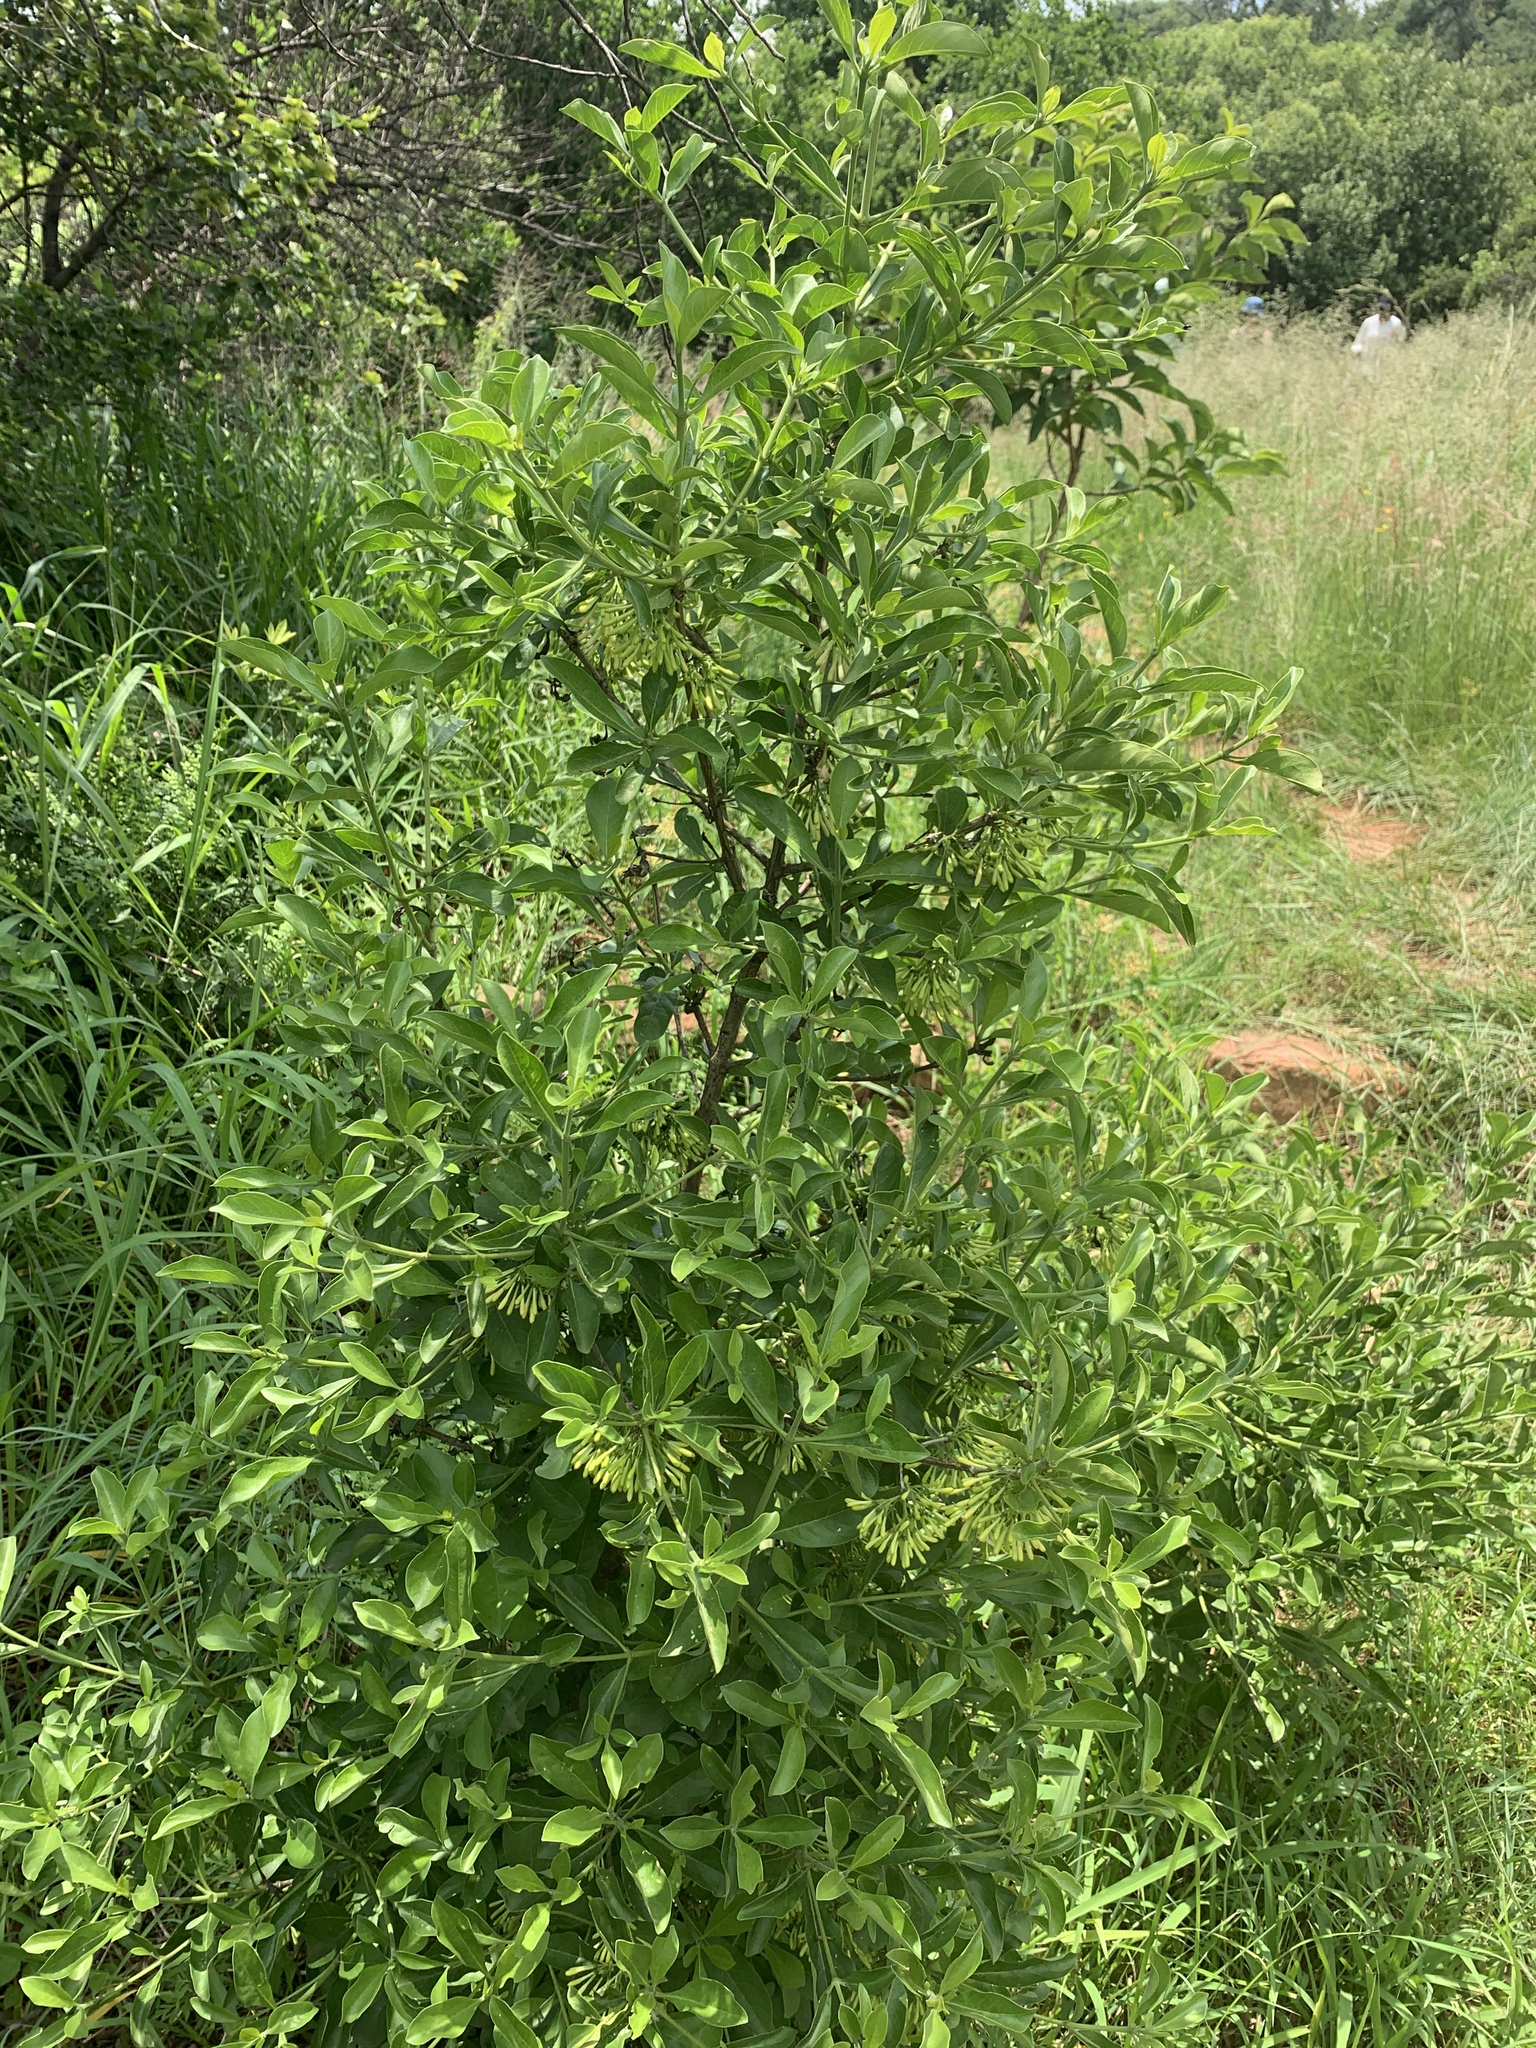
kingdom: Plantae
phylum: Tracheophyta
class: Magnoliopsida
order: Gentianales
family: Rubiaceae
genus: Pavetta
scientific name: Pavetta gardeniifolia
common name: Common brides-bush
